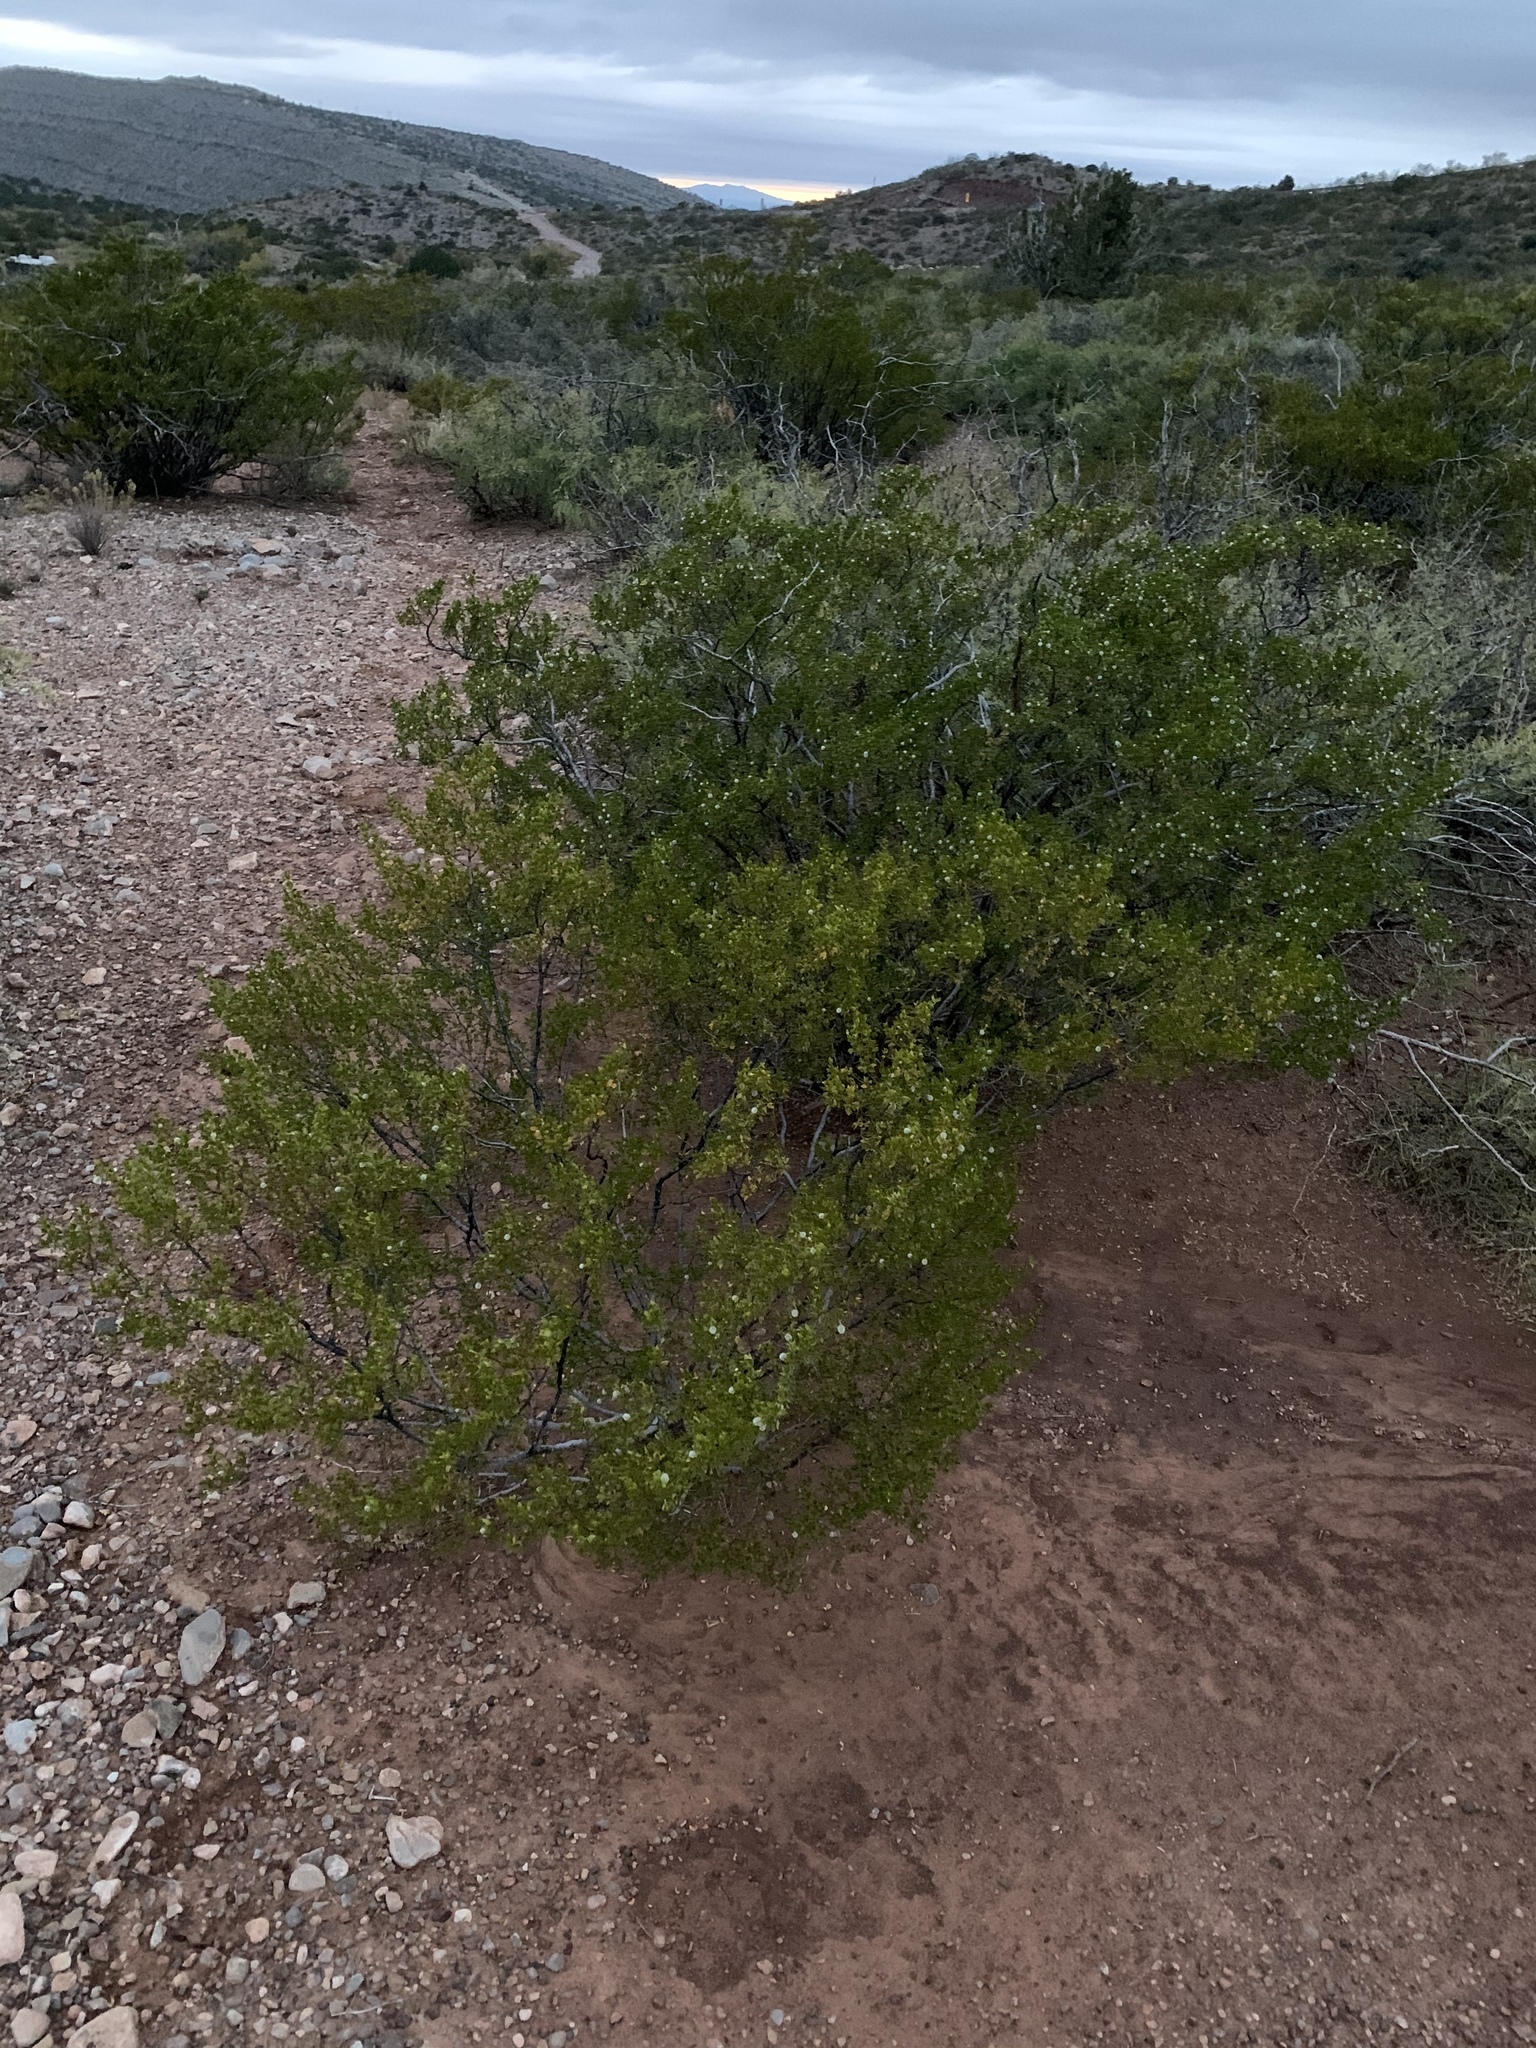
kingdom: Plantae
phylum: Tracheophyta
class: Magnoliopsida
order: Zygophyllales
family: Zygophyllaceae
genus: Larrea
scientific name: Larrea tridentata
